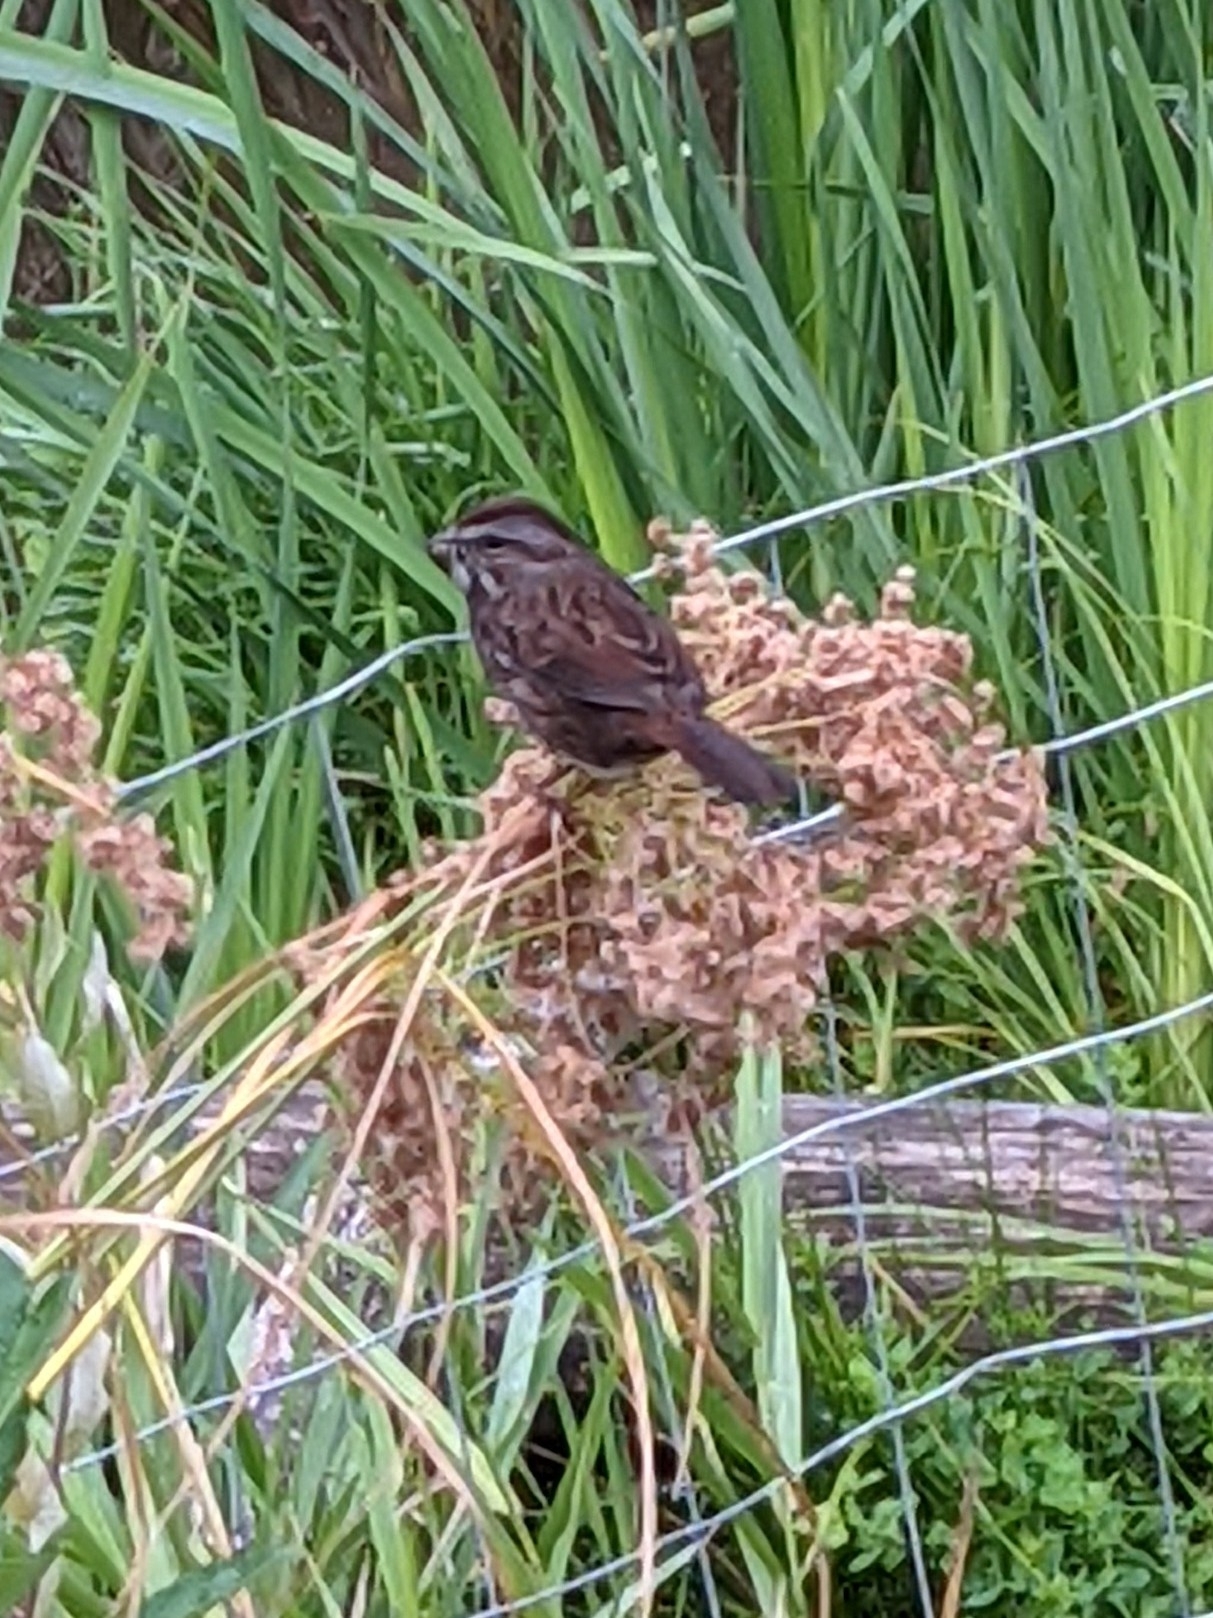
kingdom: Animalia
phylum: Chordata
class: Aves
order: Passeriformes
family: Passerellidae
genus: Melospiza
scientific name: Melospiza melodia
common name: Song sparrow
